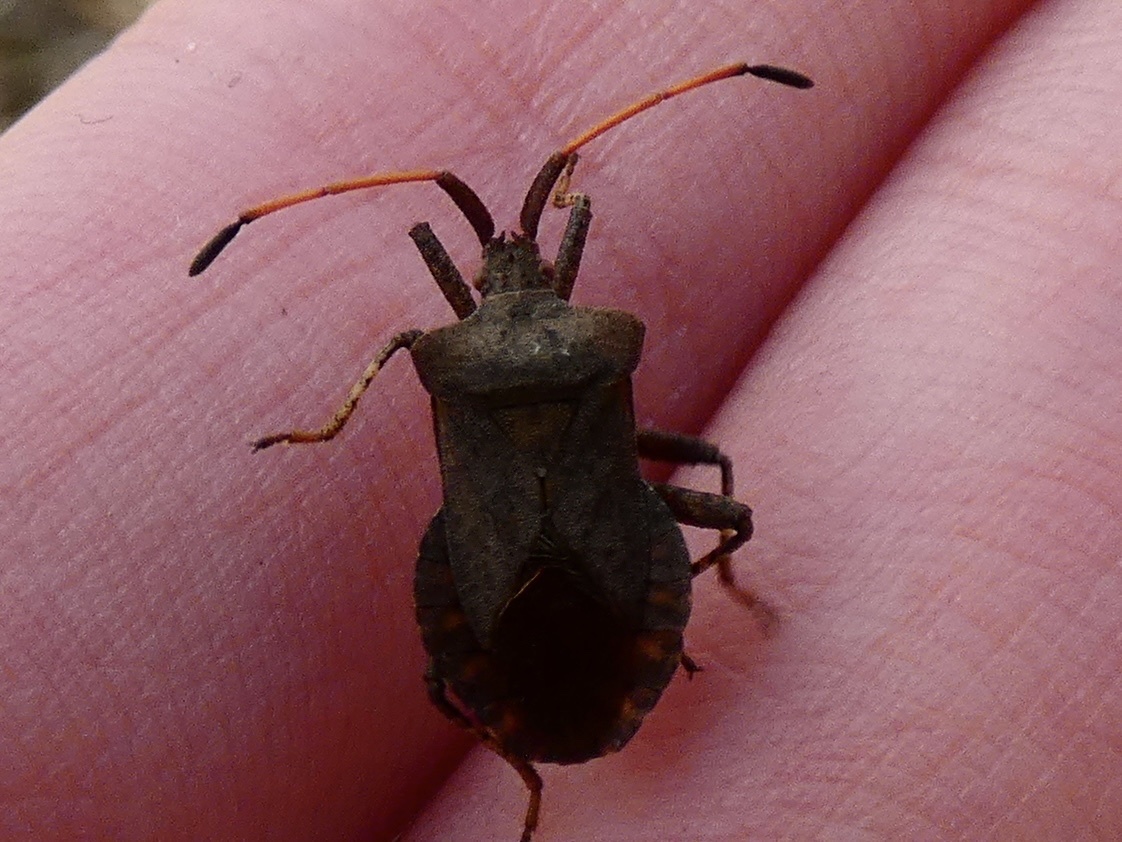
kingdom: Animalia
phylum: Arthropoda
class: Insecta
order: Hemiptera
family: Coreidae
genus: Coreus
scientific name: Coreus marginatus
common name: Dock bug
